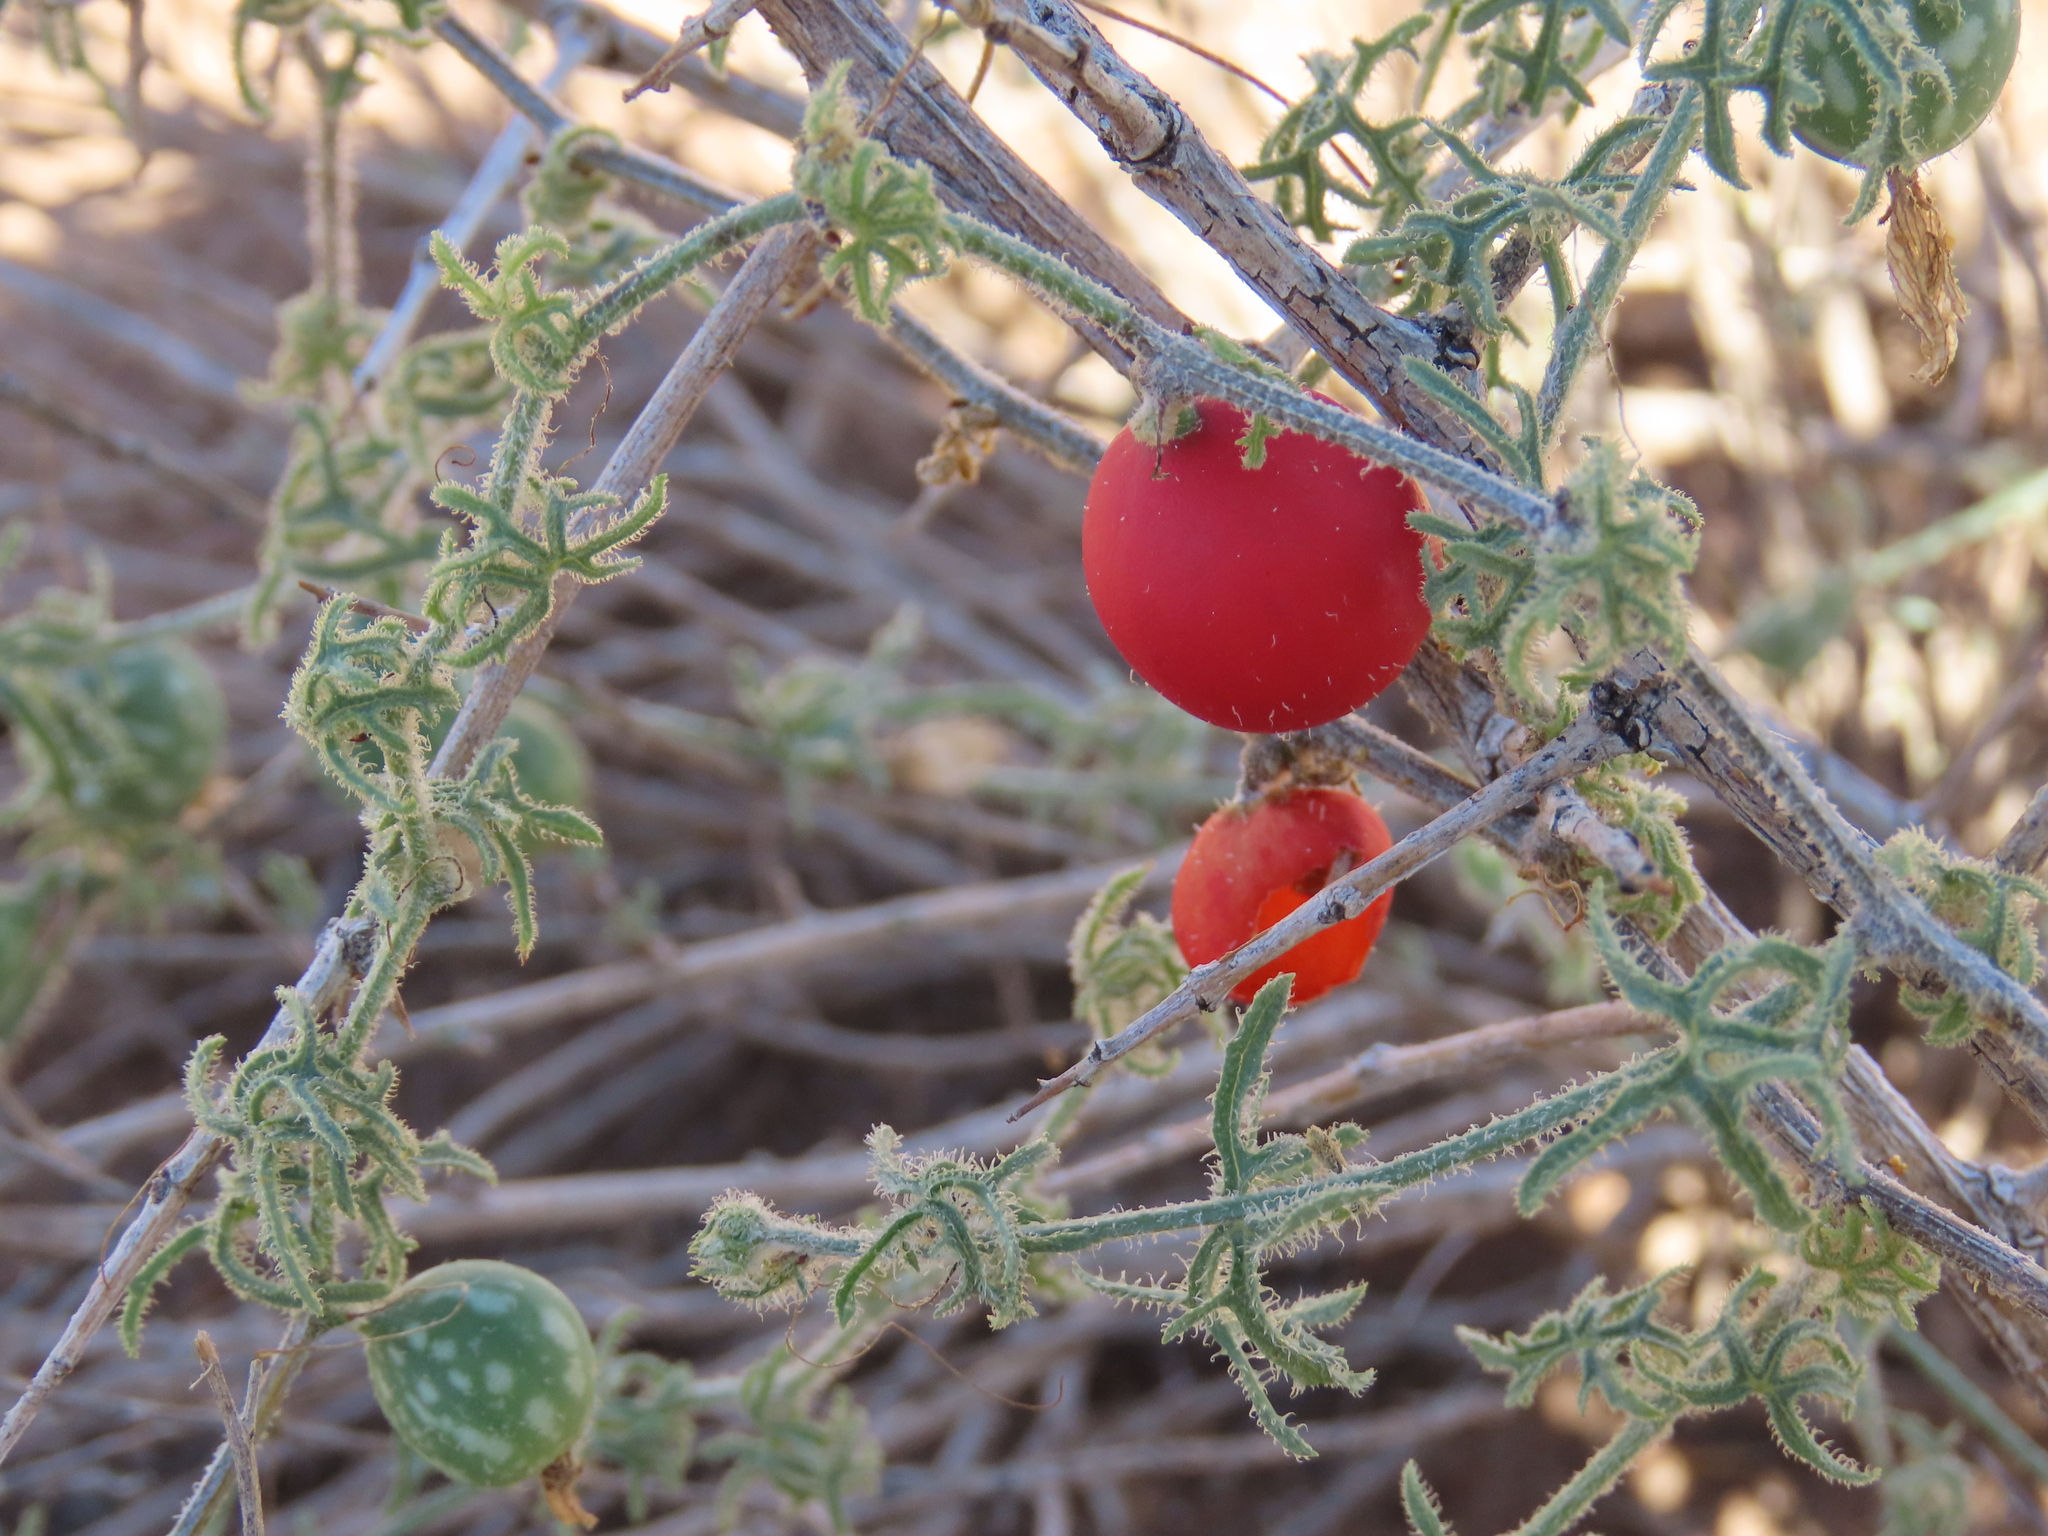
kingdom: Plantae
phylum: Tracheophyta
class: Magnoliopsida
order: Cucurbitales
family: Cucurbitaceae
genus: Coccinia
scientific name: Coccinia rehmannii
